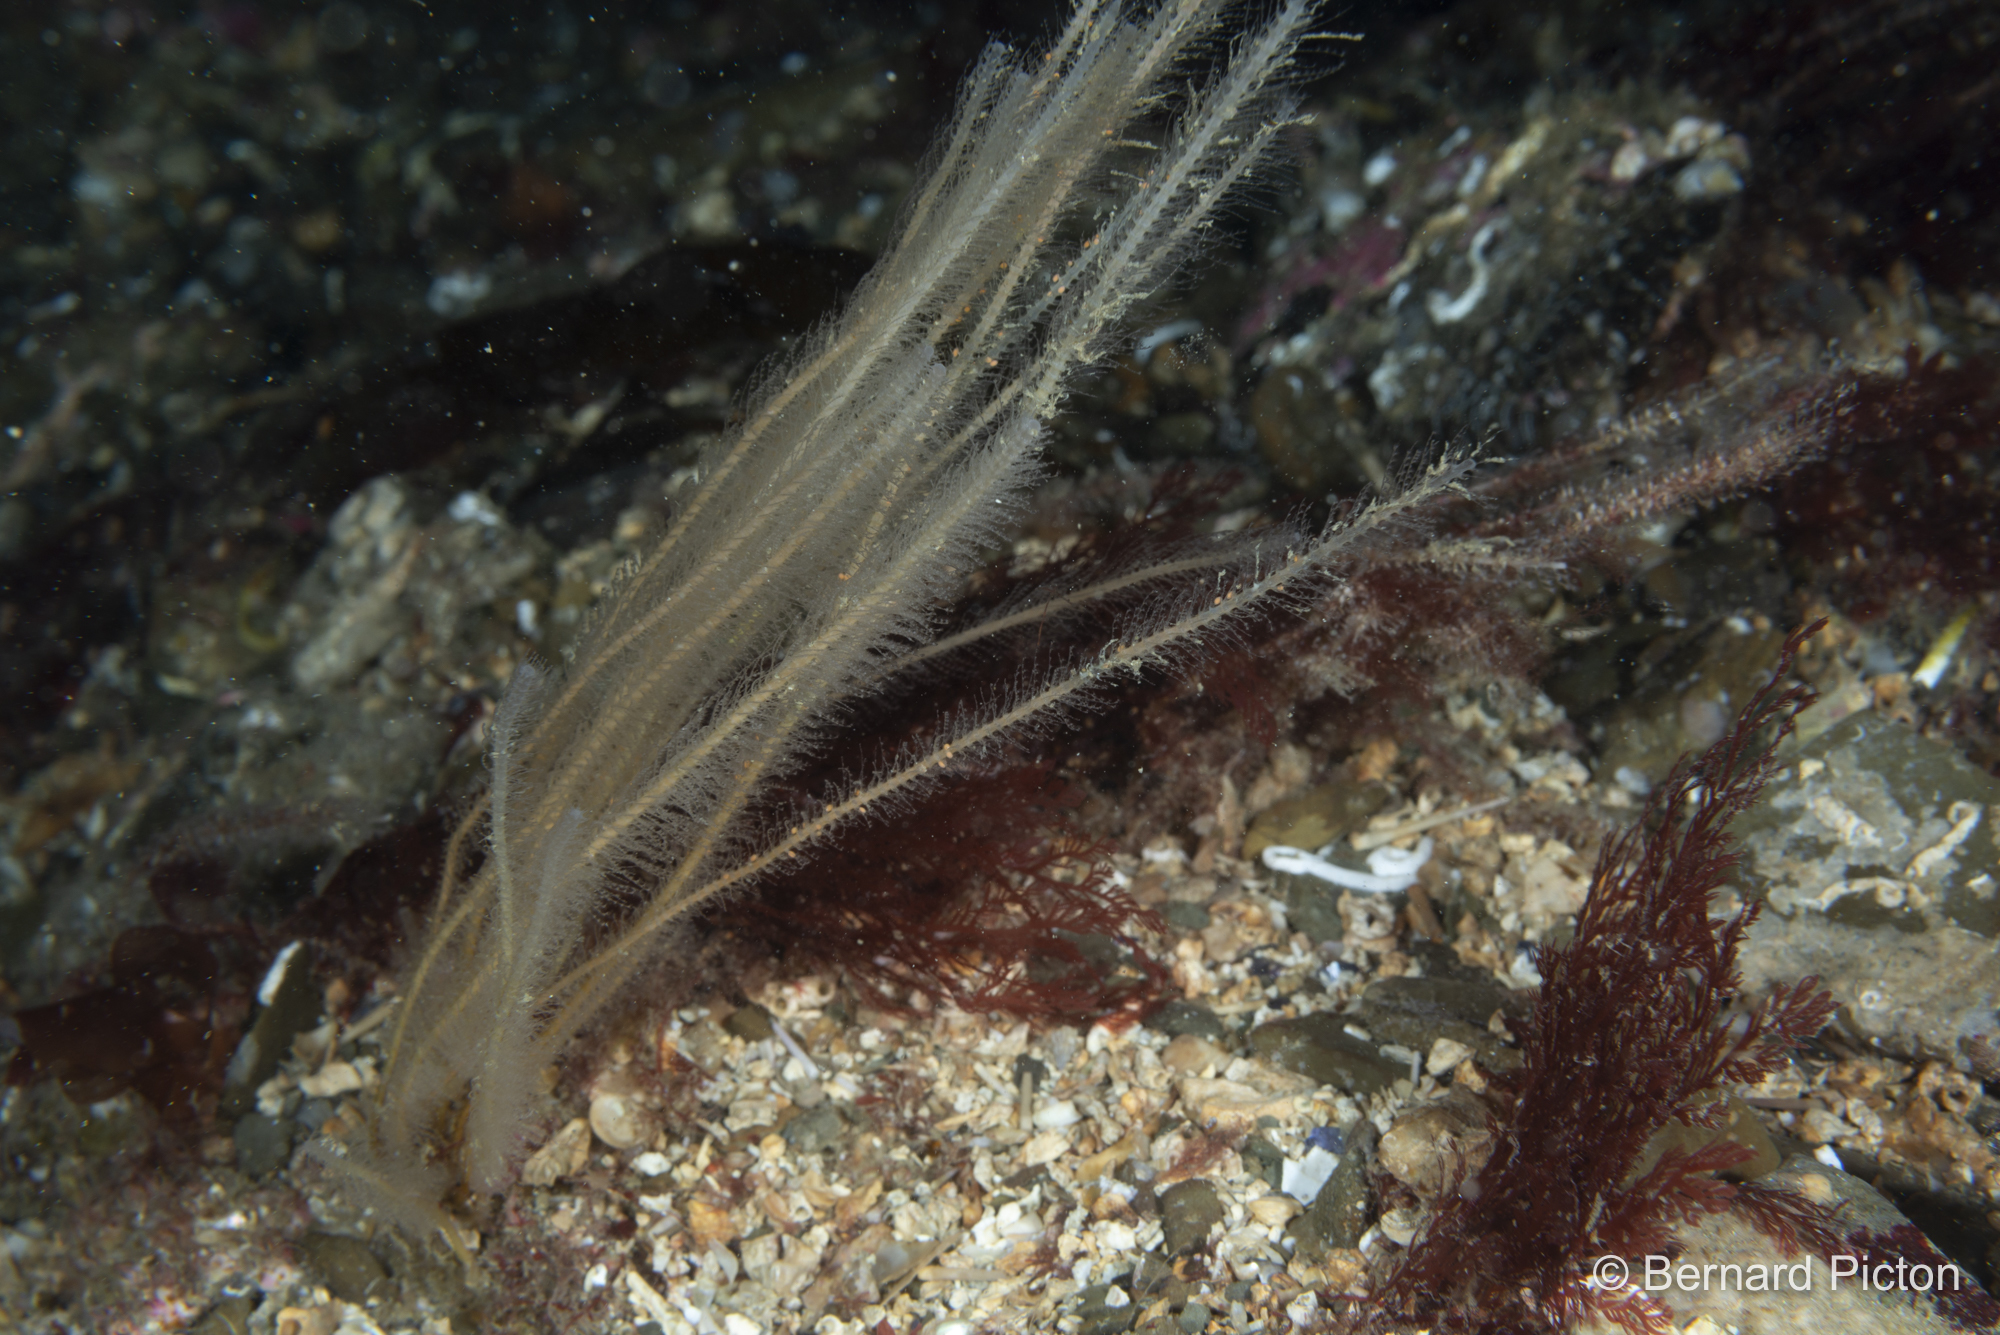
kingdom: Animalia
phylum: Cnidaria
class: Hydrozoa
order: Leptothecata
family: Plumulariidae
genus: Nemertesia
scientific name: Nemertesia antennina
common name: Sea beard
